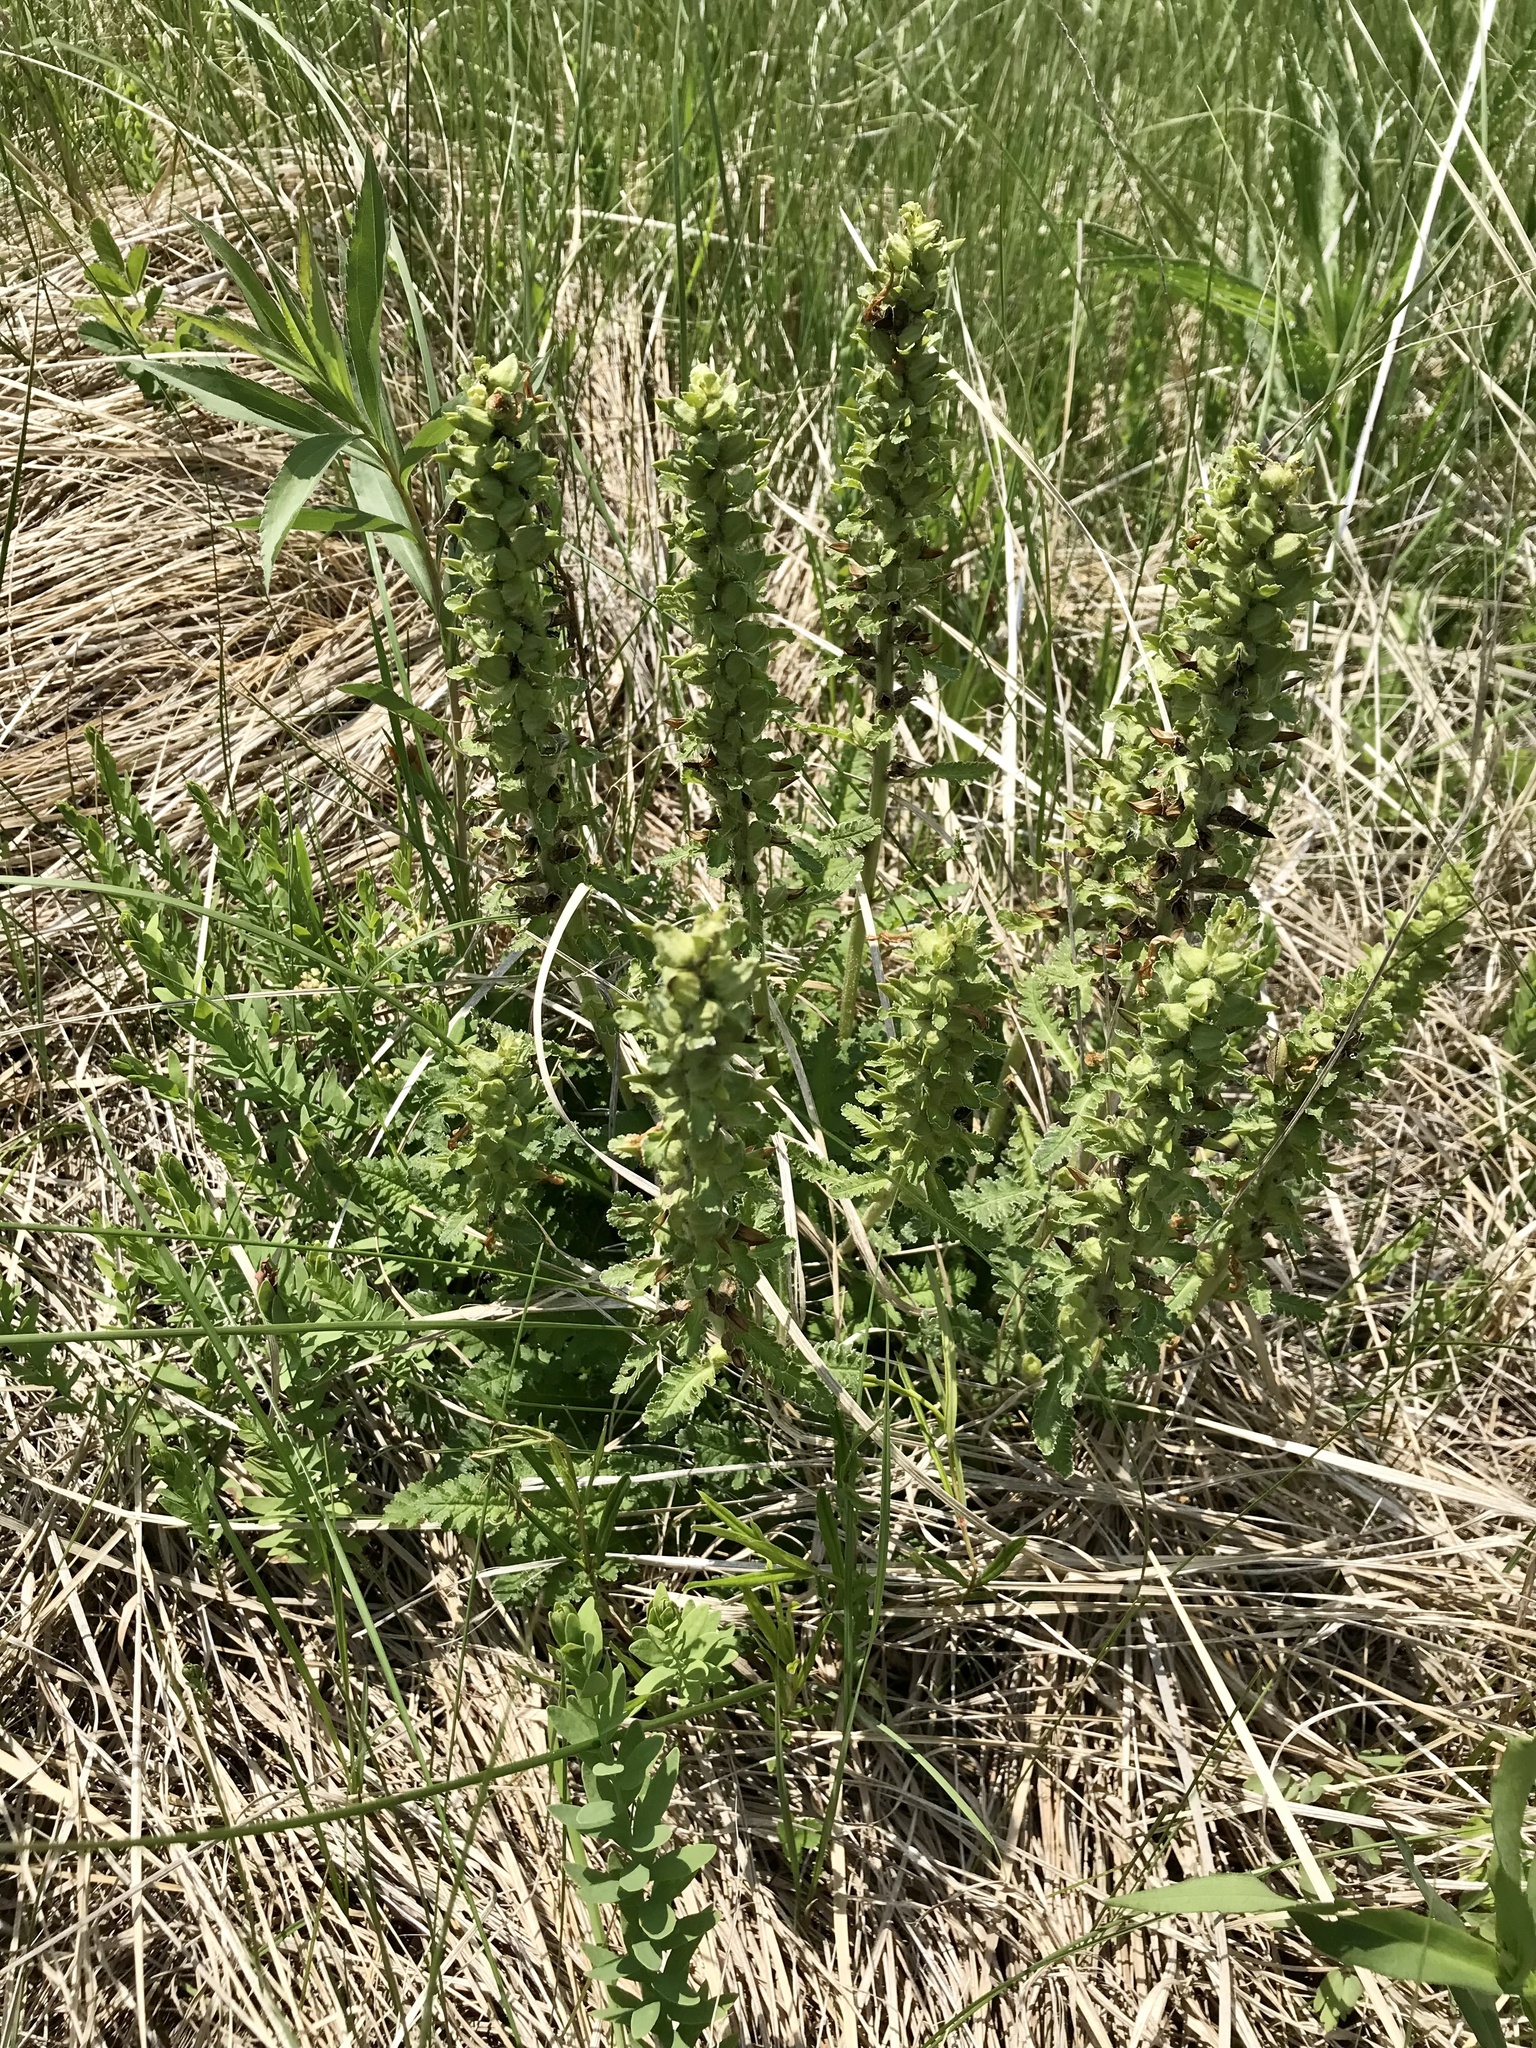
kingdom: Plantae
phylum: Tracheophyta
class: Magnoliopsida
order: Lamiales
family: Orobanchaceae
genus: Pedicularis
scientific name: Pedicularis canadensis
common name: Early lousewort
